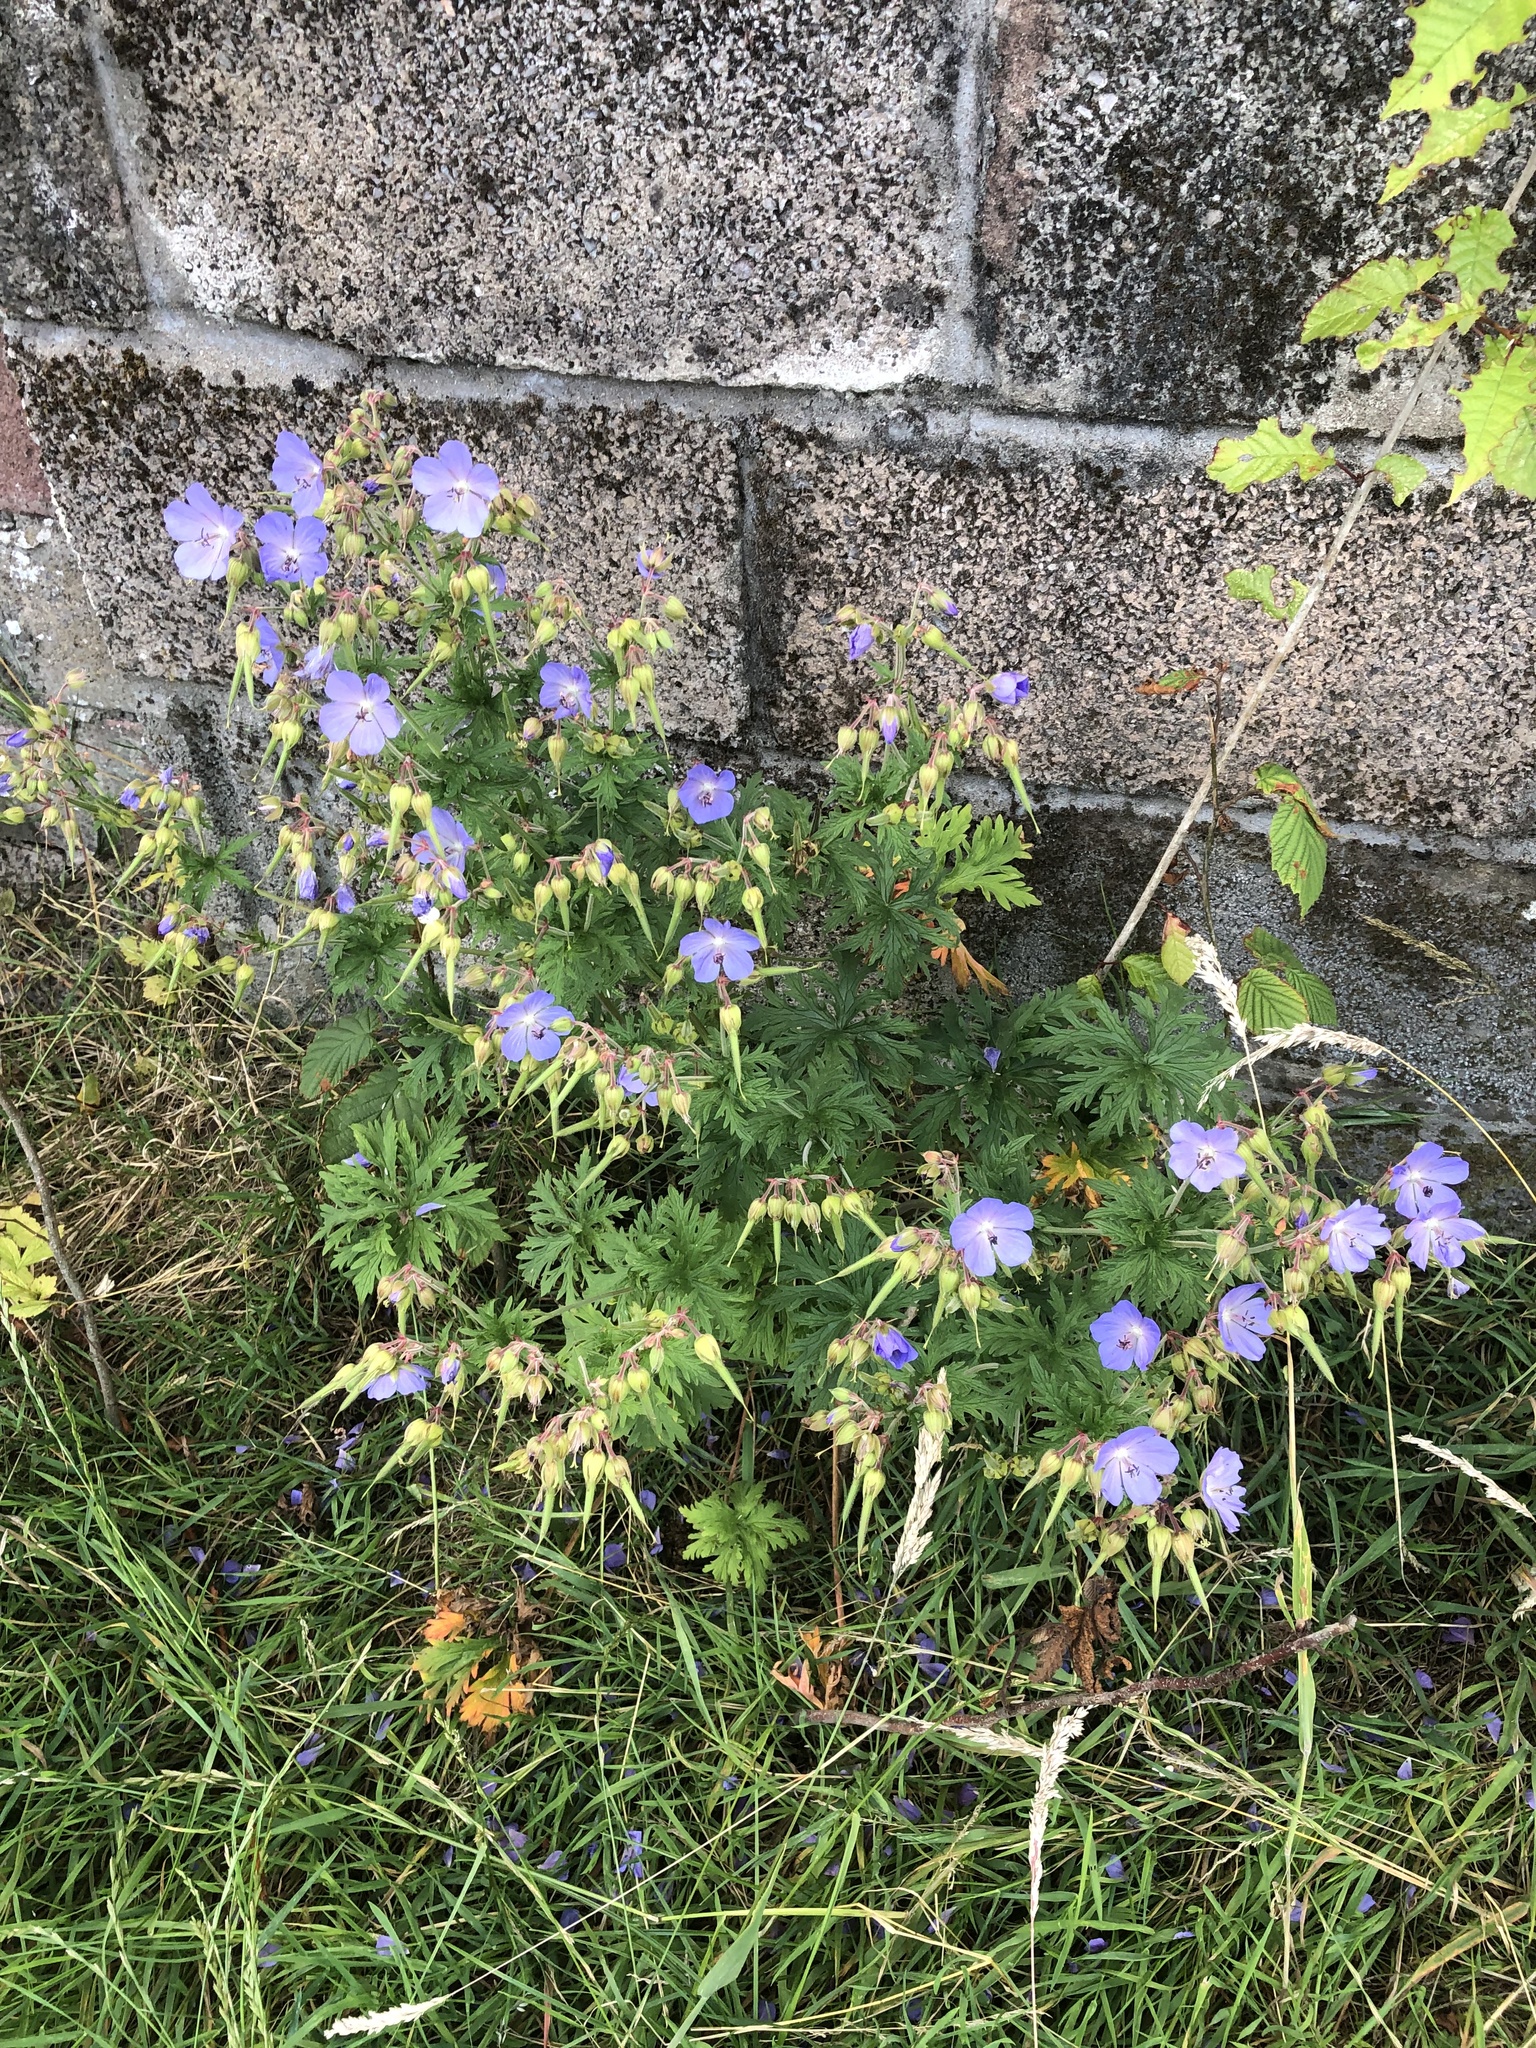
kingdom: Plantae
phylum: Tracheophyta
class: Magnoliopsida
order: Geraniales
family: Geraniaceae
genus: Geranium
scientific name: Geranium pratense
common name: Meadow crane's-bill
